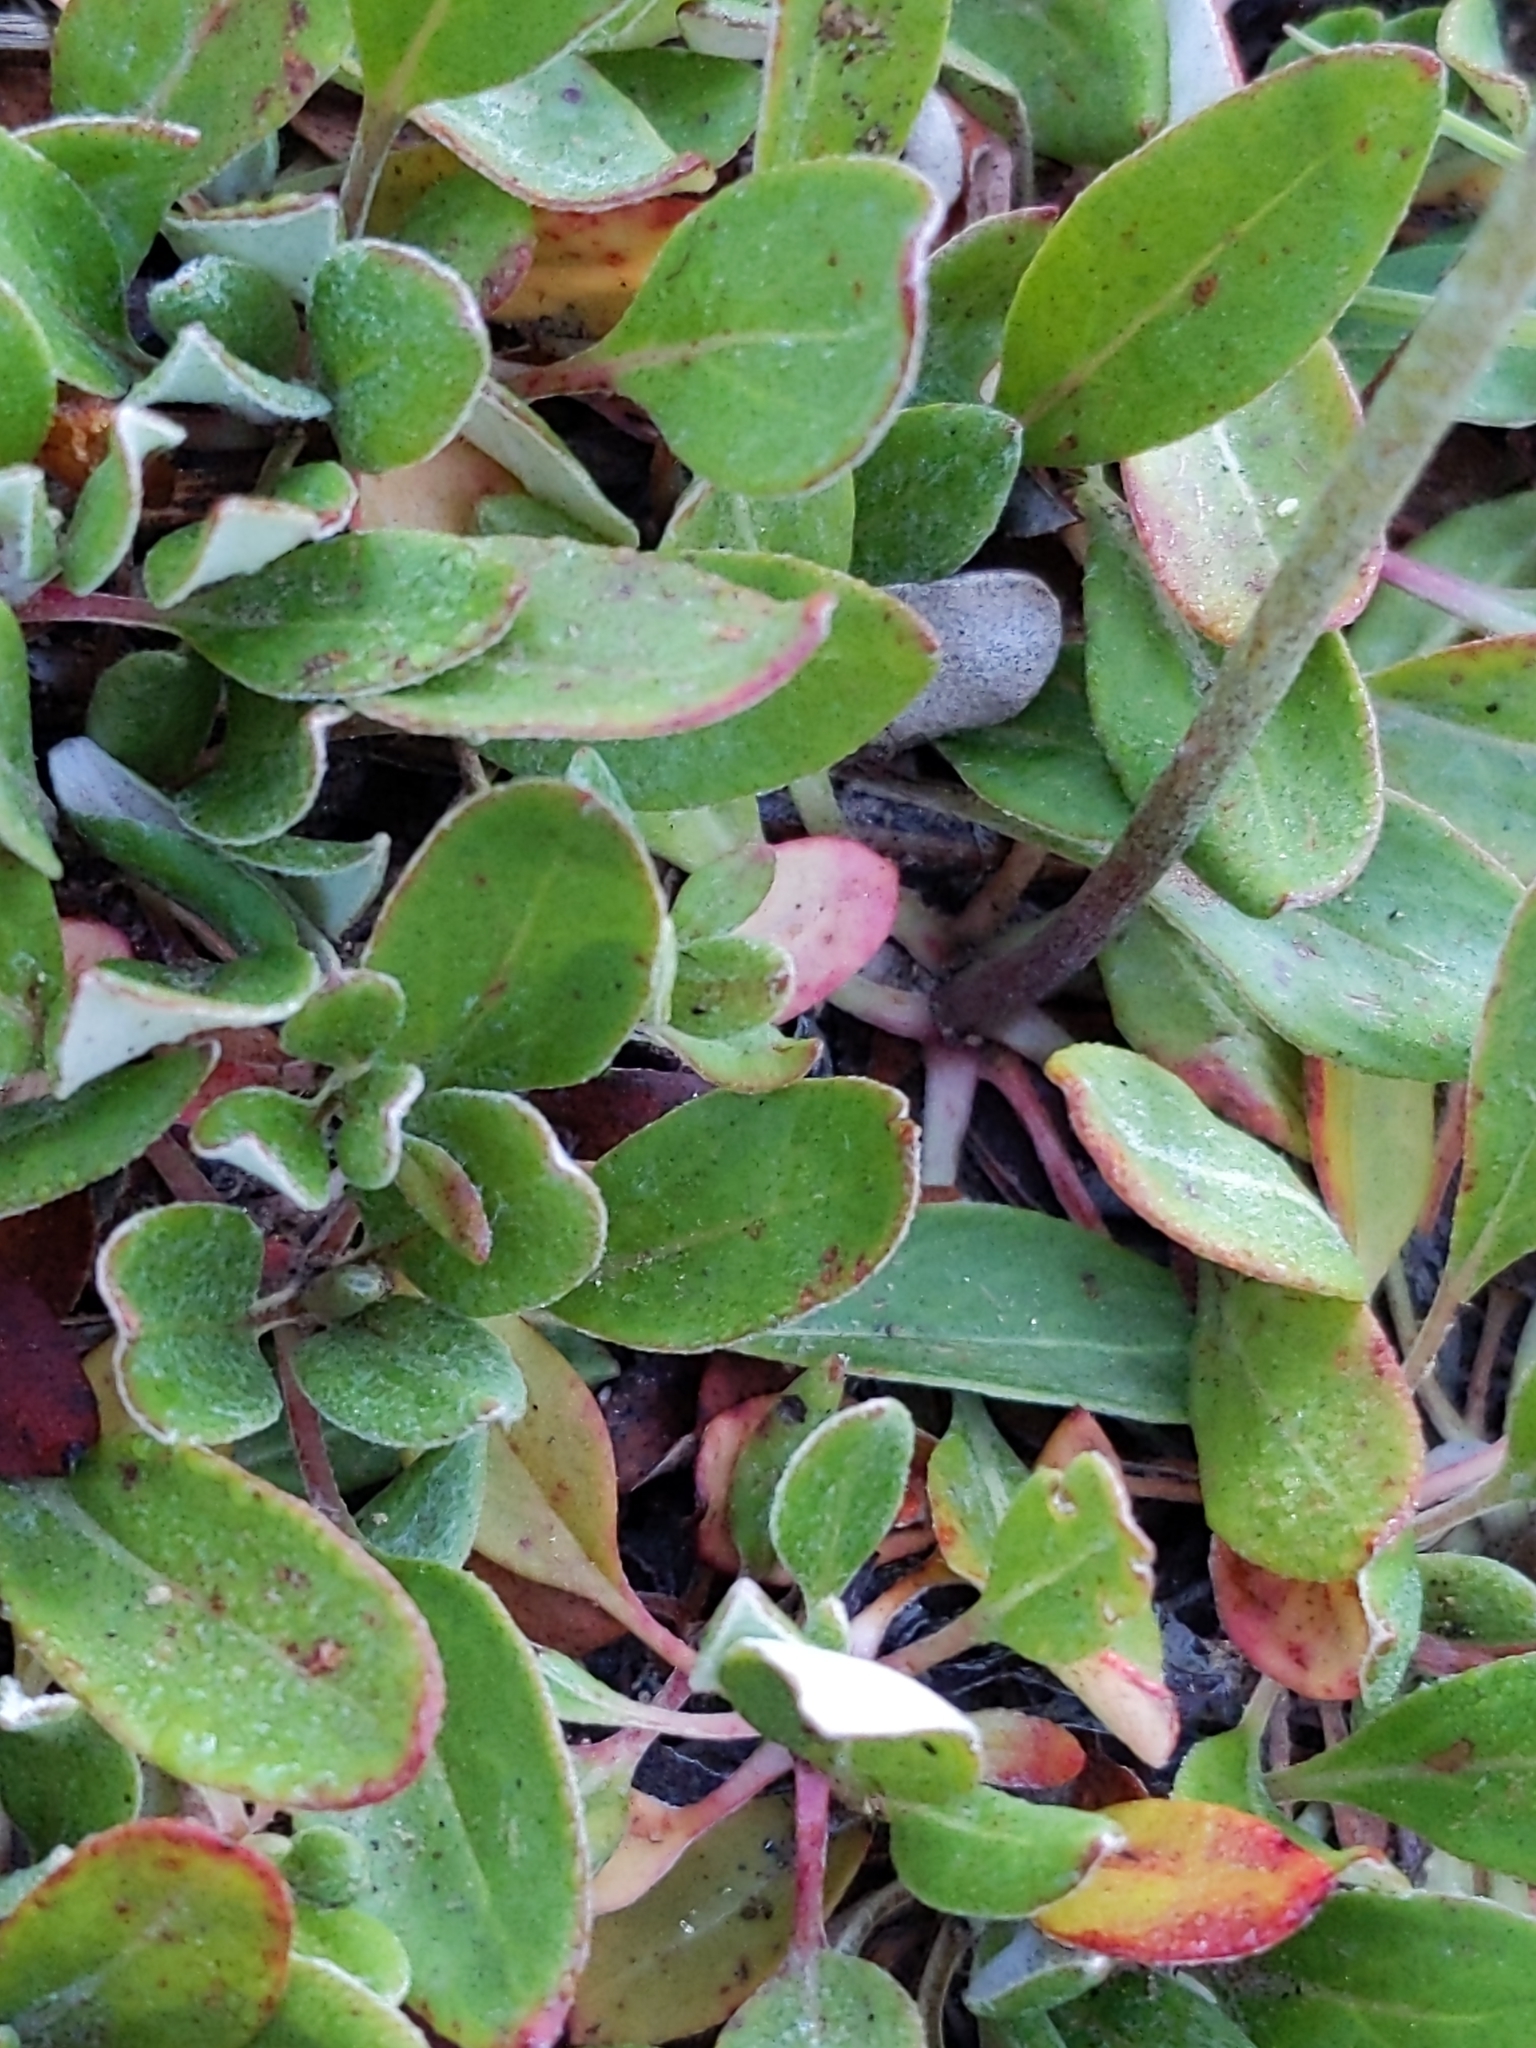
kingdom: Plantae
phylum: Tracheophyta
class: Magnoliopsida
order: Caryophyllales
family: Polygonaceae
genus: Eriogonum
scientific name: Eriogonum umbellatum
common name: Sulfur-buckwheat
